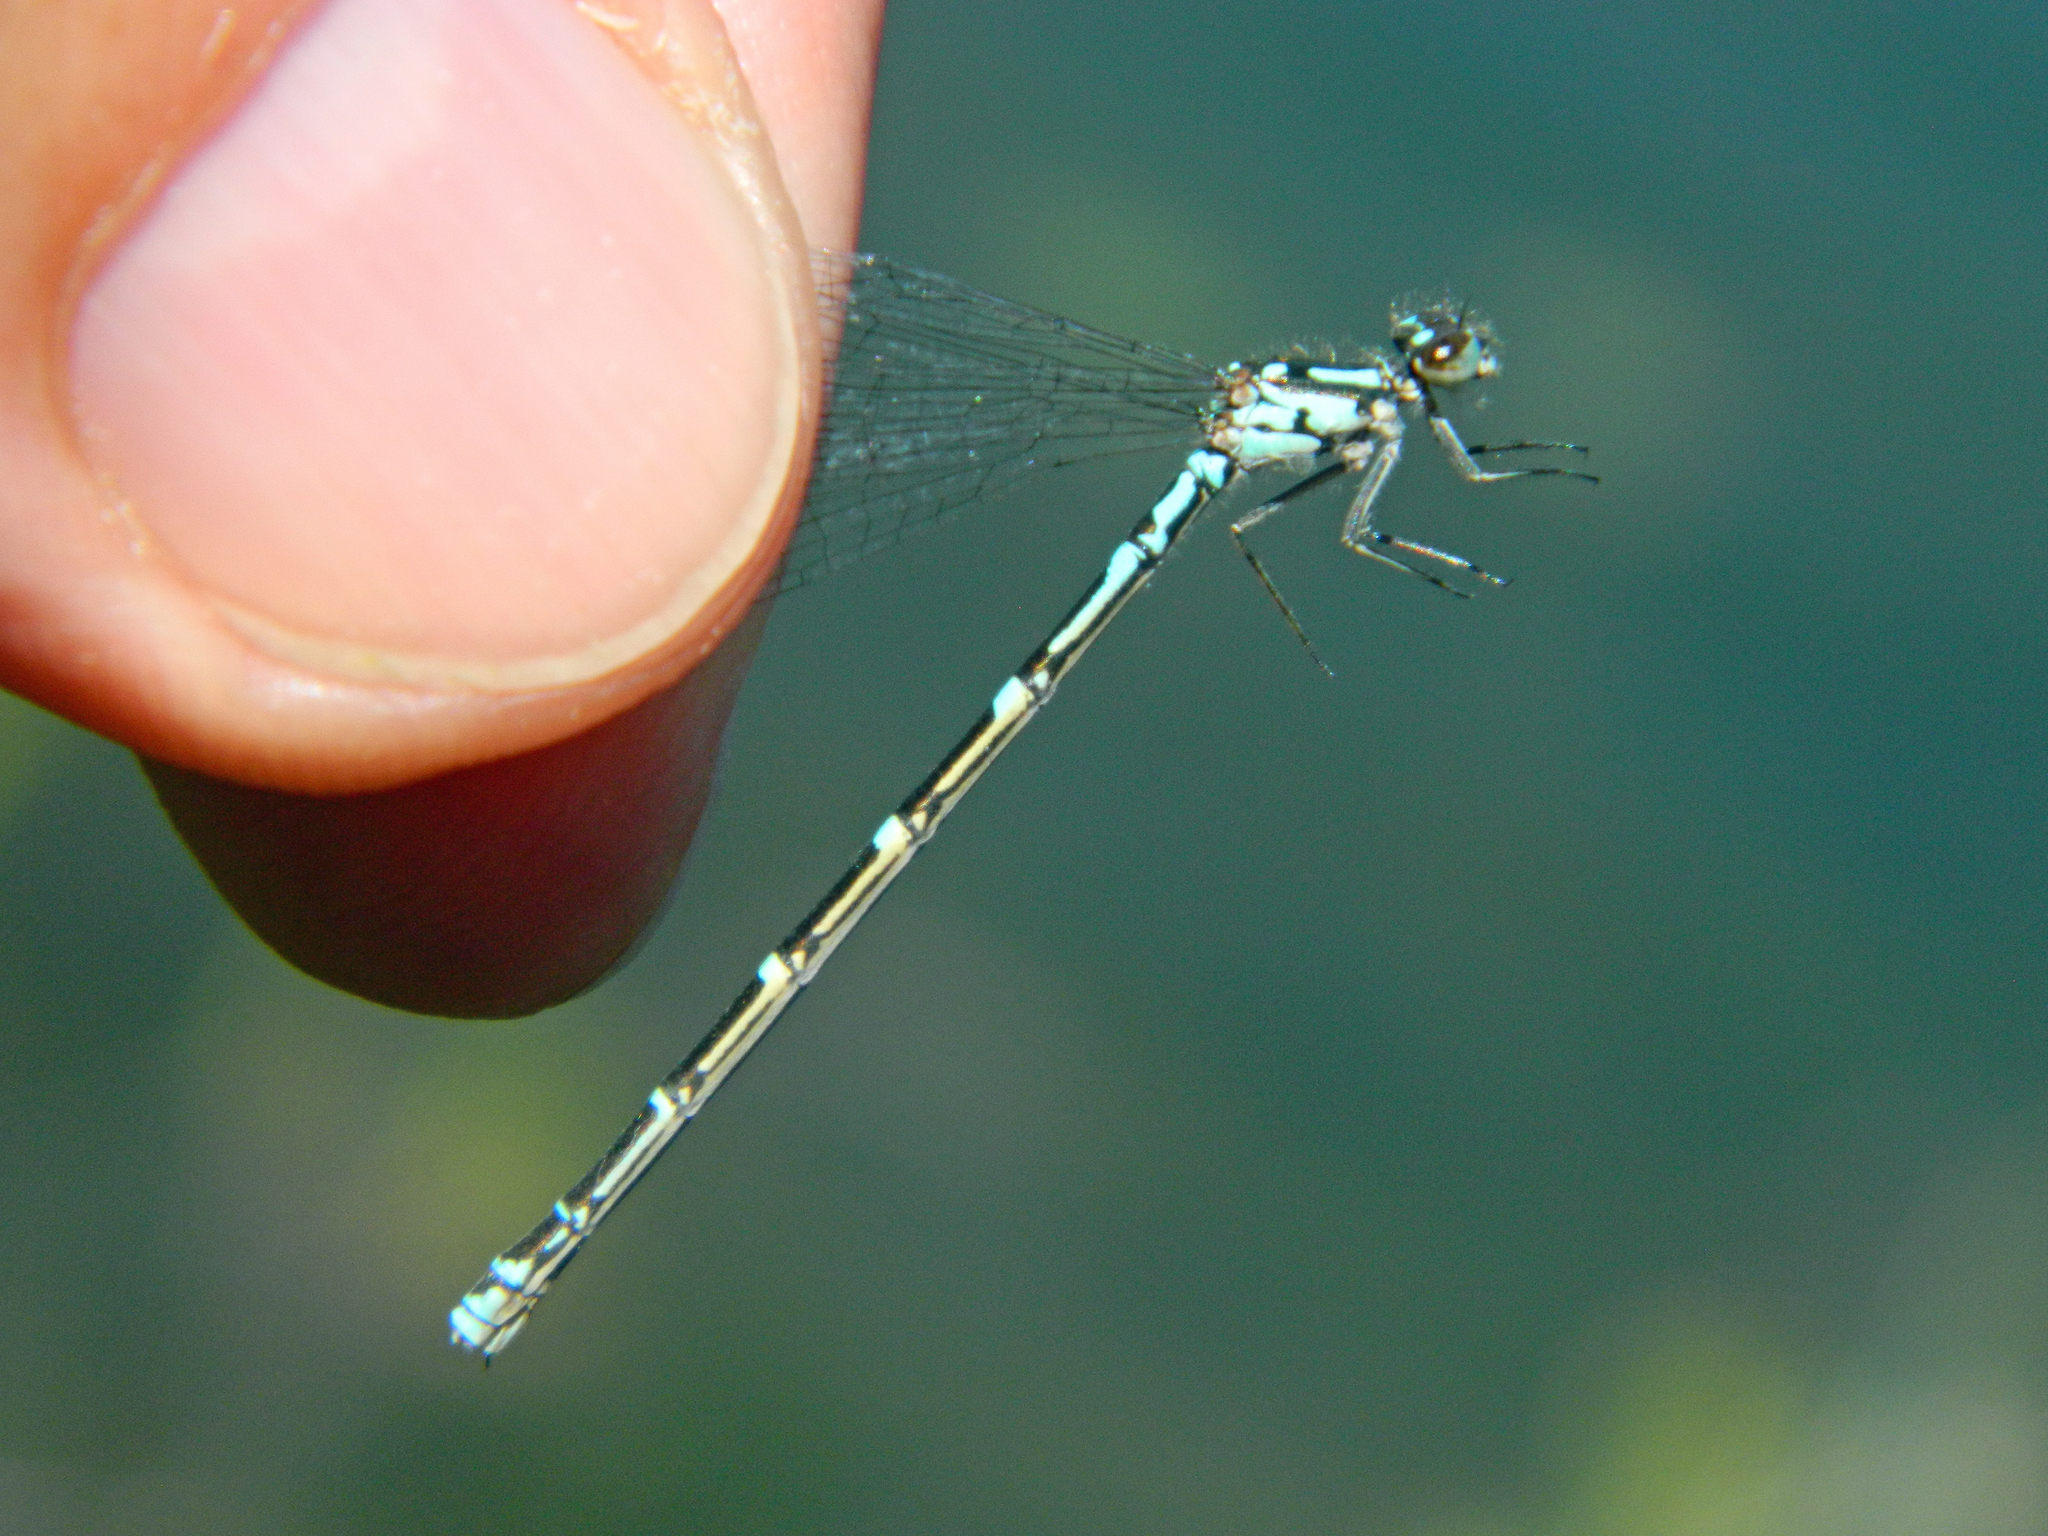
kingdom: Animalia
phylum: Arthropoda
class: Insecta
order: Odonata
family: Coenagrionidae
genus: Coenagrion
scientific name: Coenagrion interrogatum
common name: Subarctic bluet
